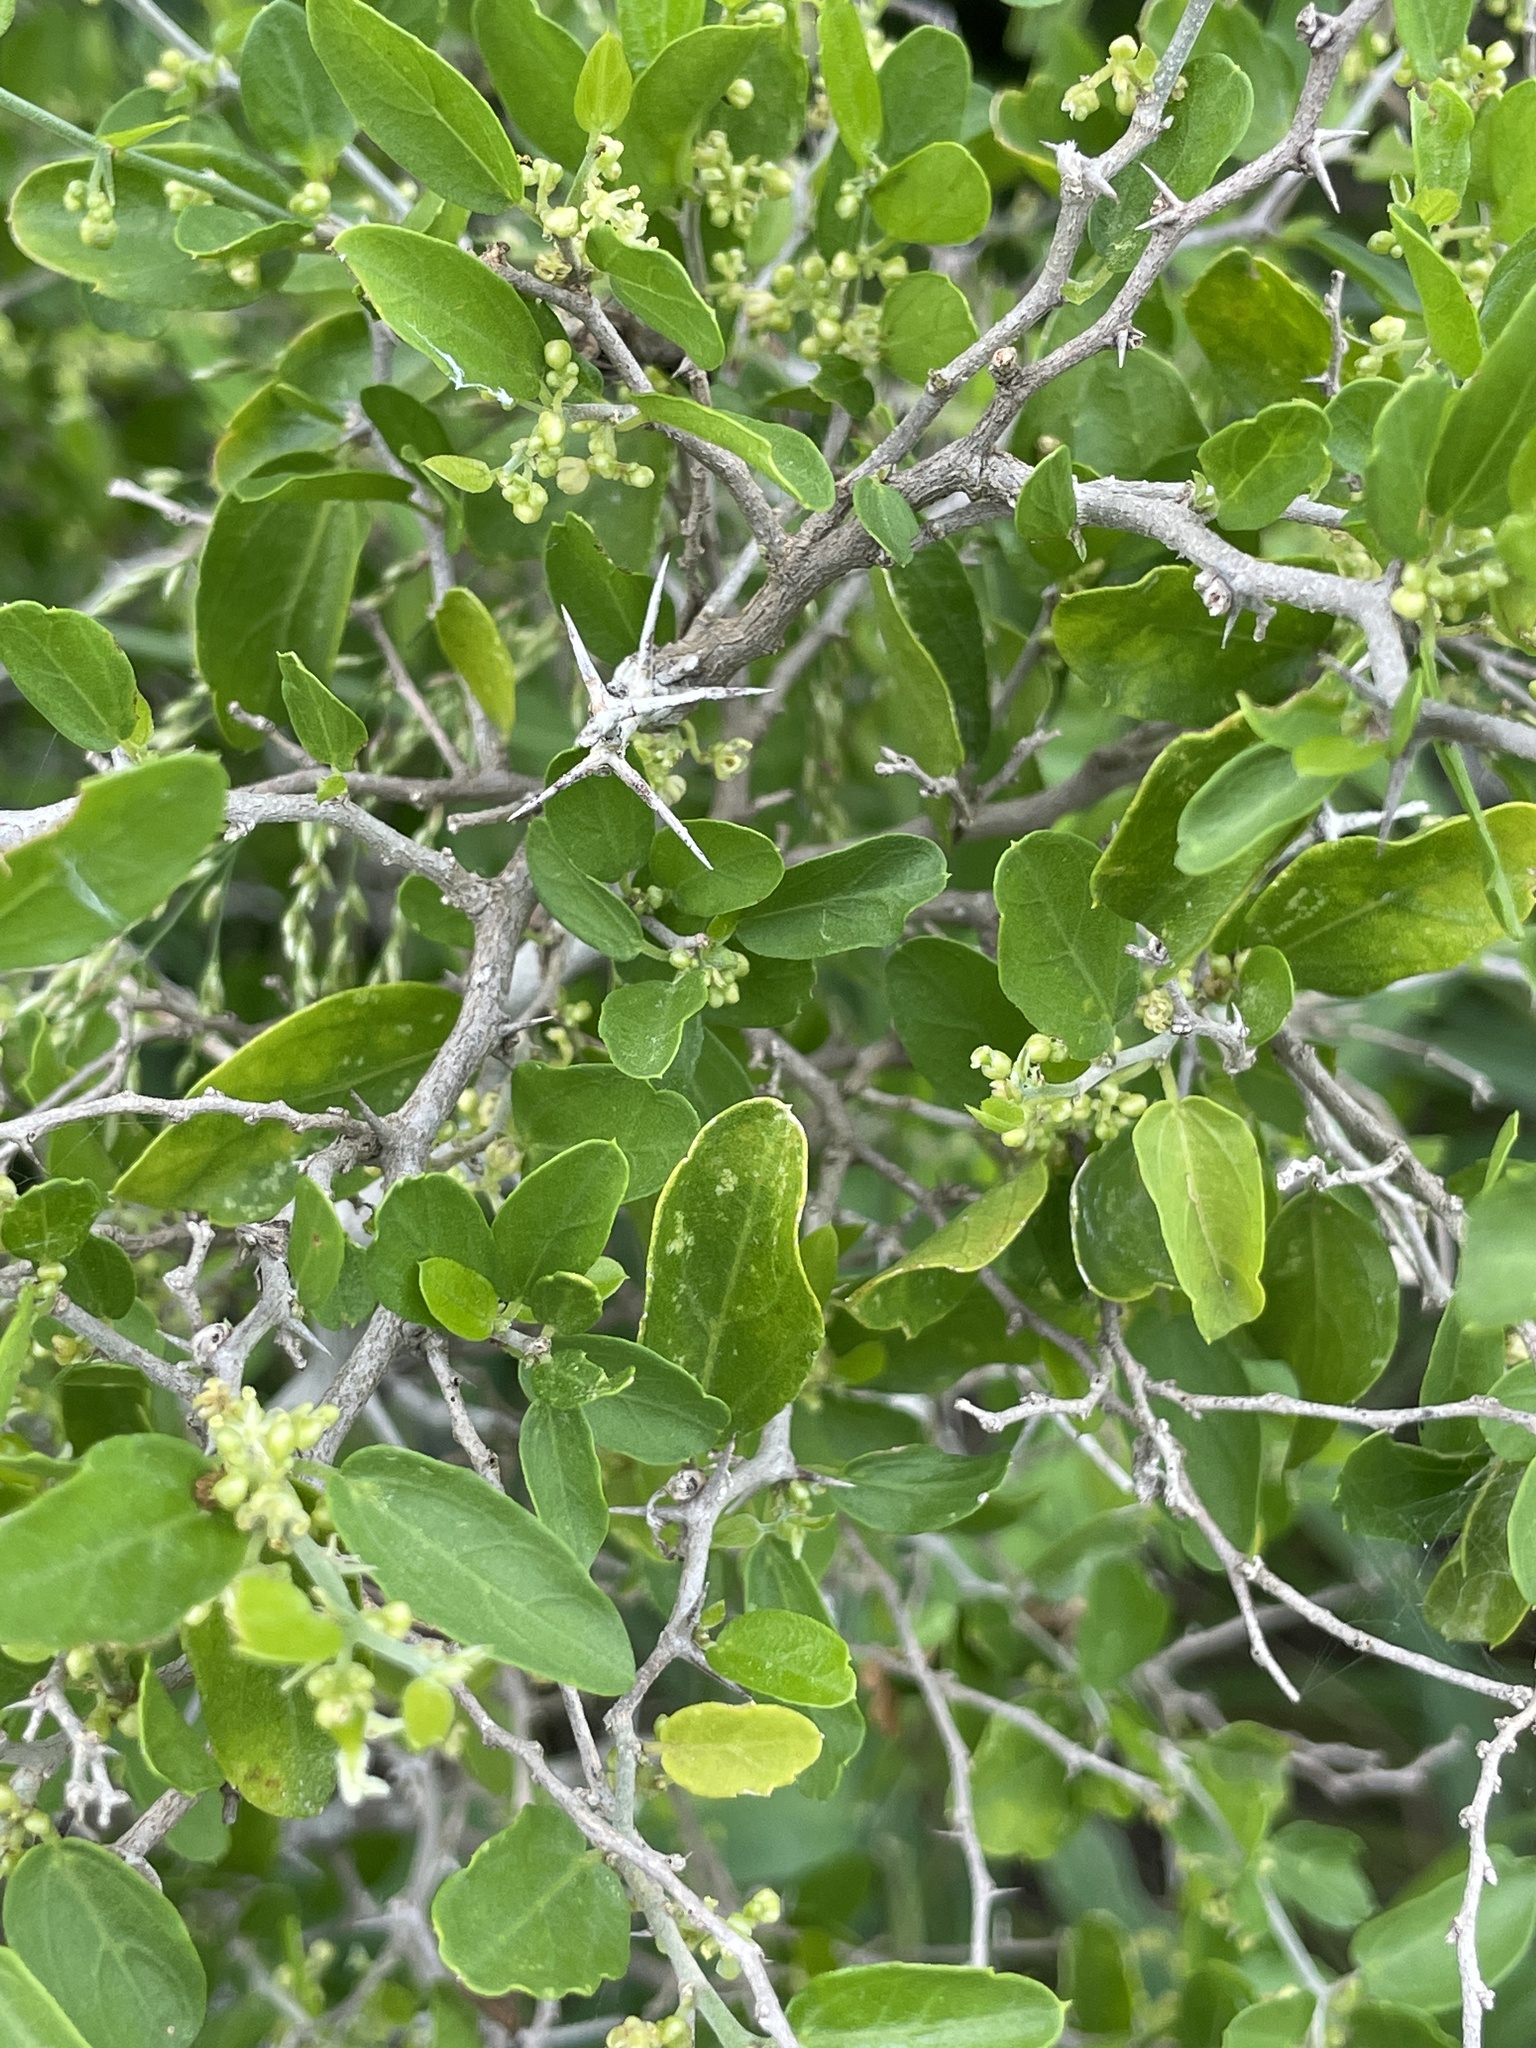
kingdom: Plantae
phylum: Tracheophyta
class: Magnoliopsida
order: Rosales
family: Cannabaceae
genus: Celtis
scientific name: Celtis pallida
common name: Desert hackberry
